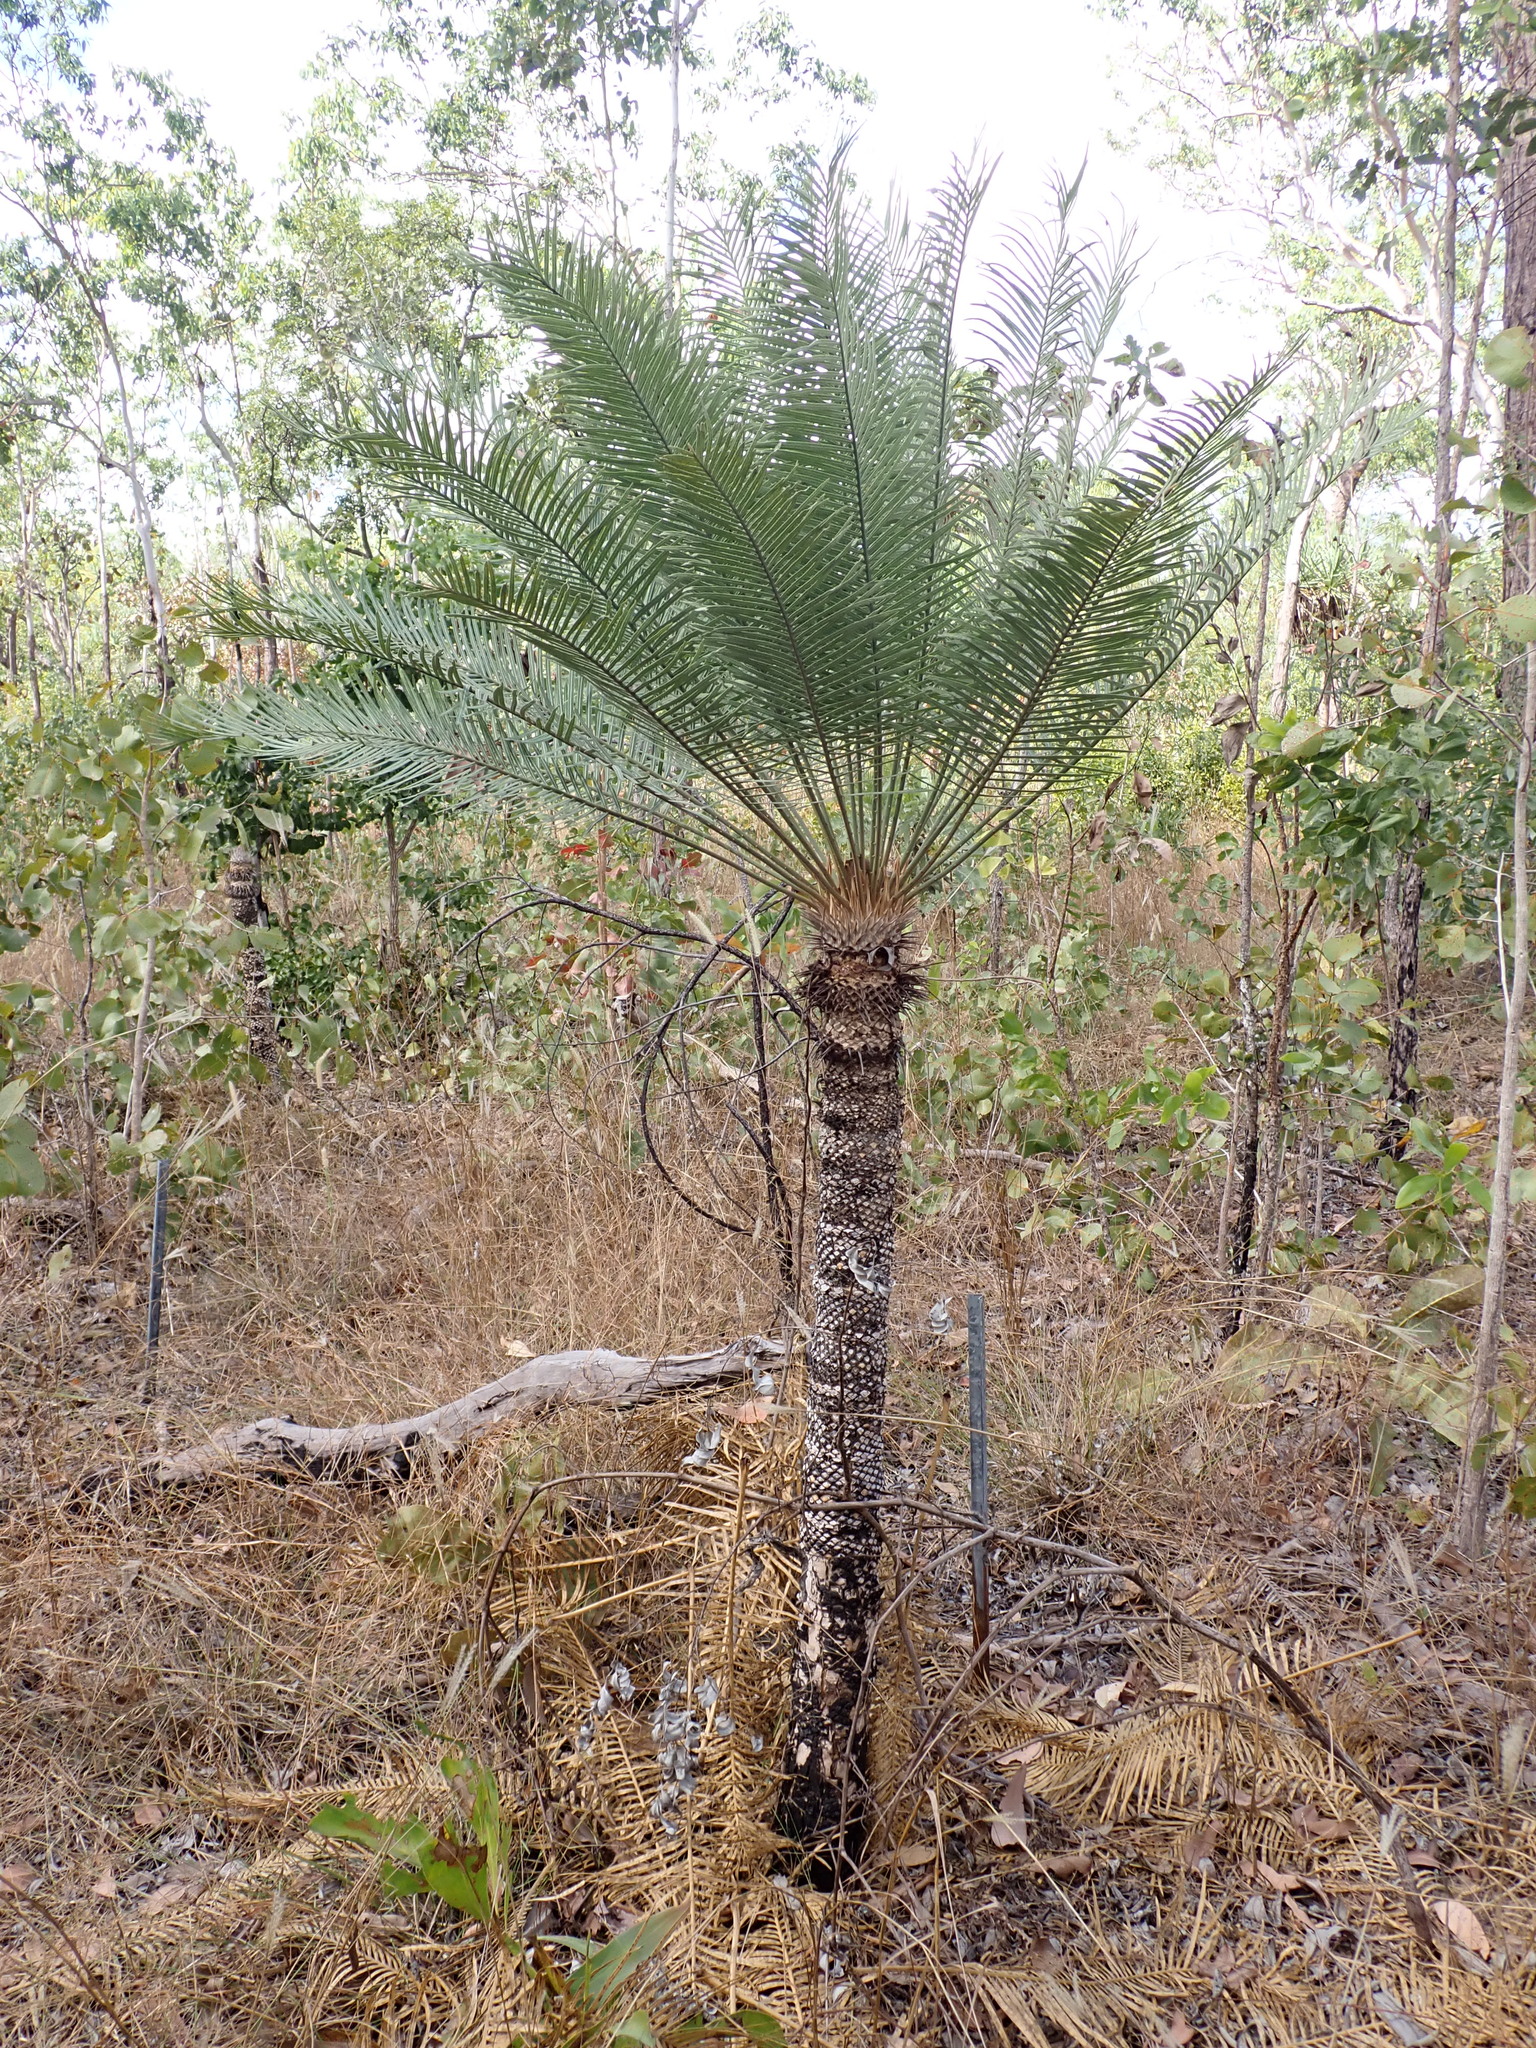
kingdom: Plantae
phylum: Tracheophyta
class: Cycadopsida
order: Cycadales
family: Cycadaceae
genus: Cycas
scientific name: Cycas armstrongii
